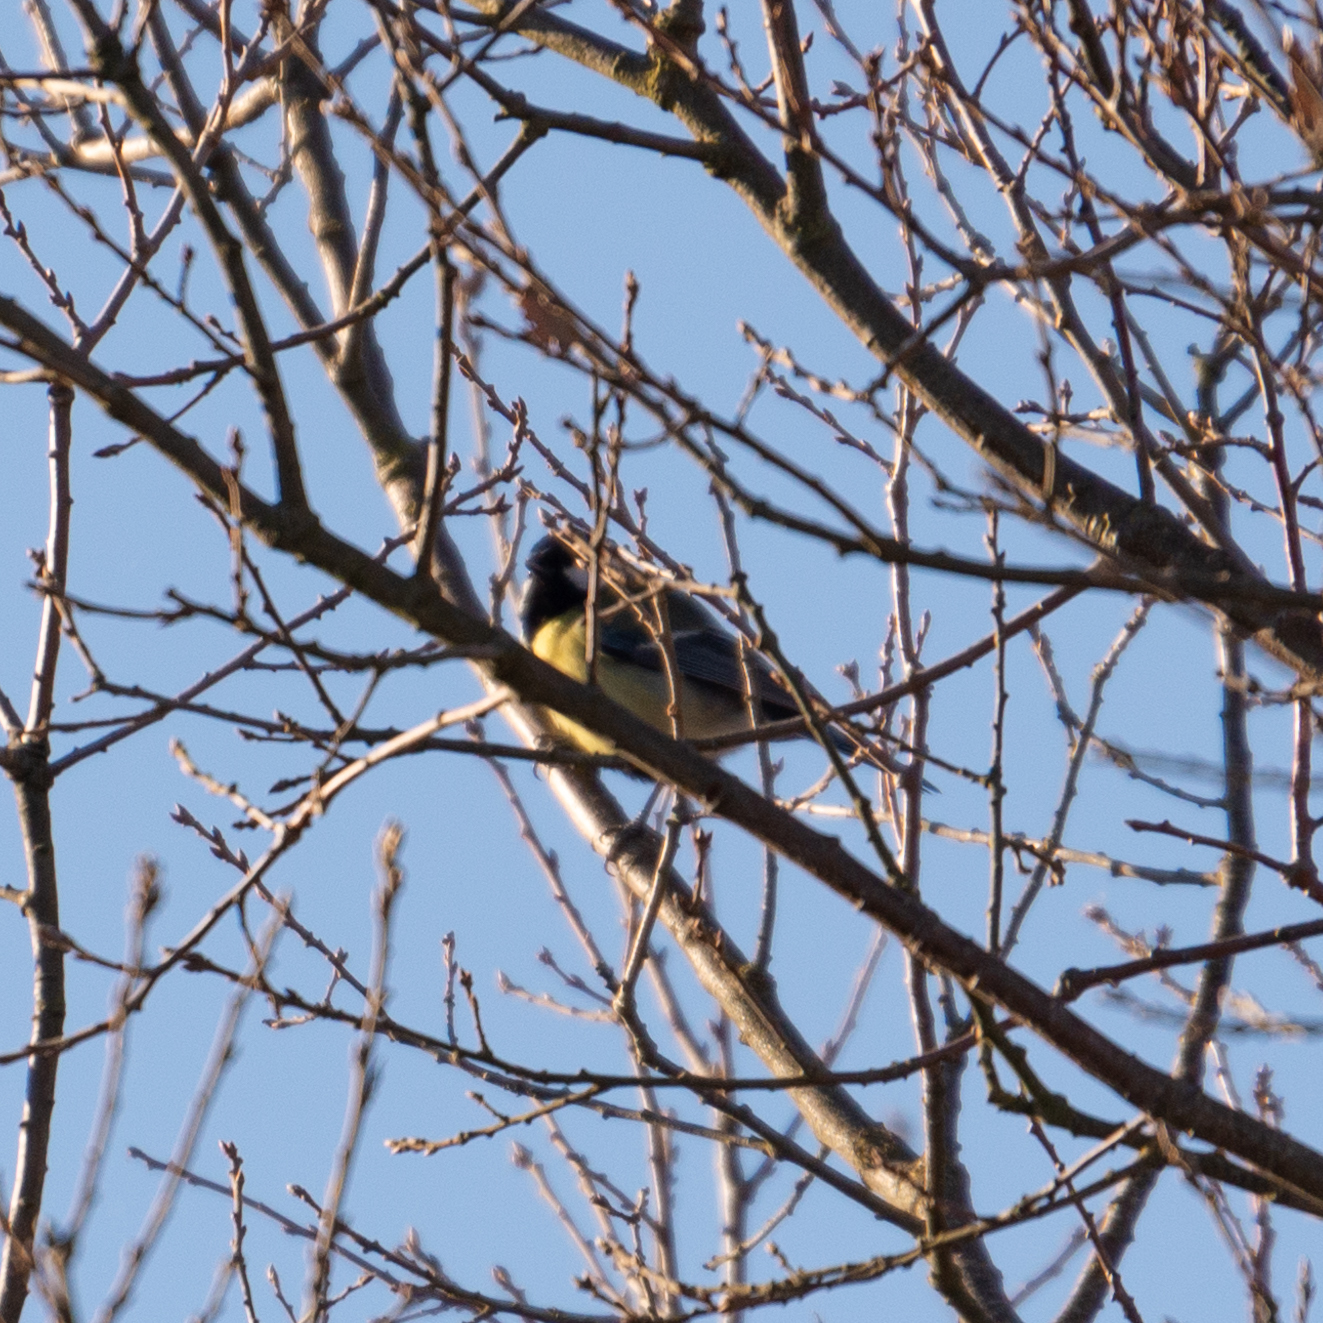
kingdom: Animalia
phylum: Chordata
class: Aves
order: Passeriformes
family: Paridae
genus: Parus
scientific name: Parus major
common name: Great tit
